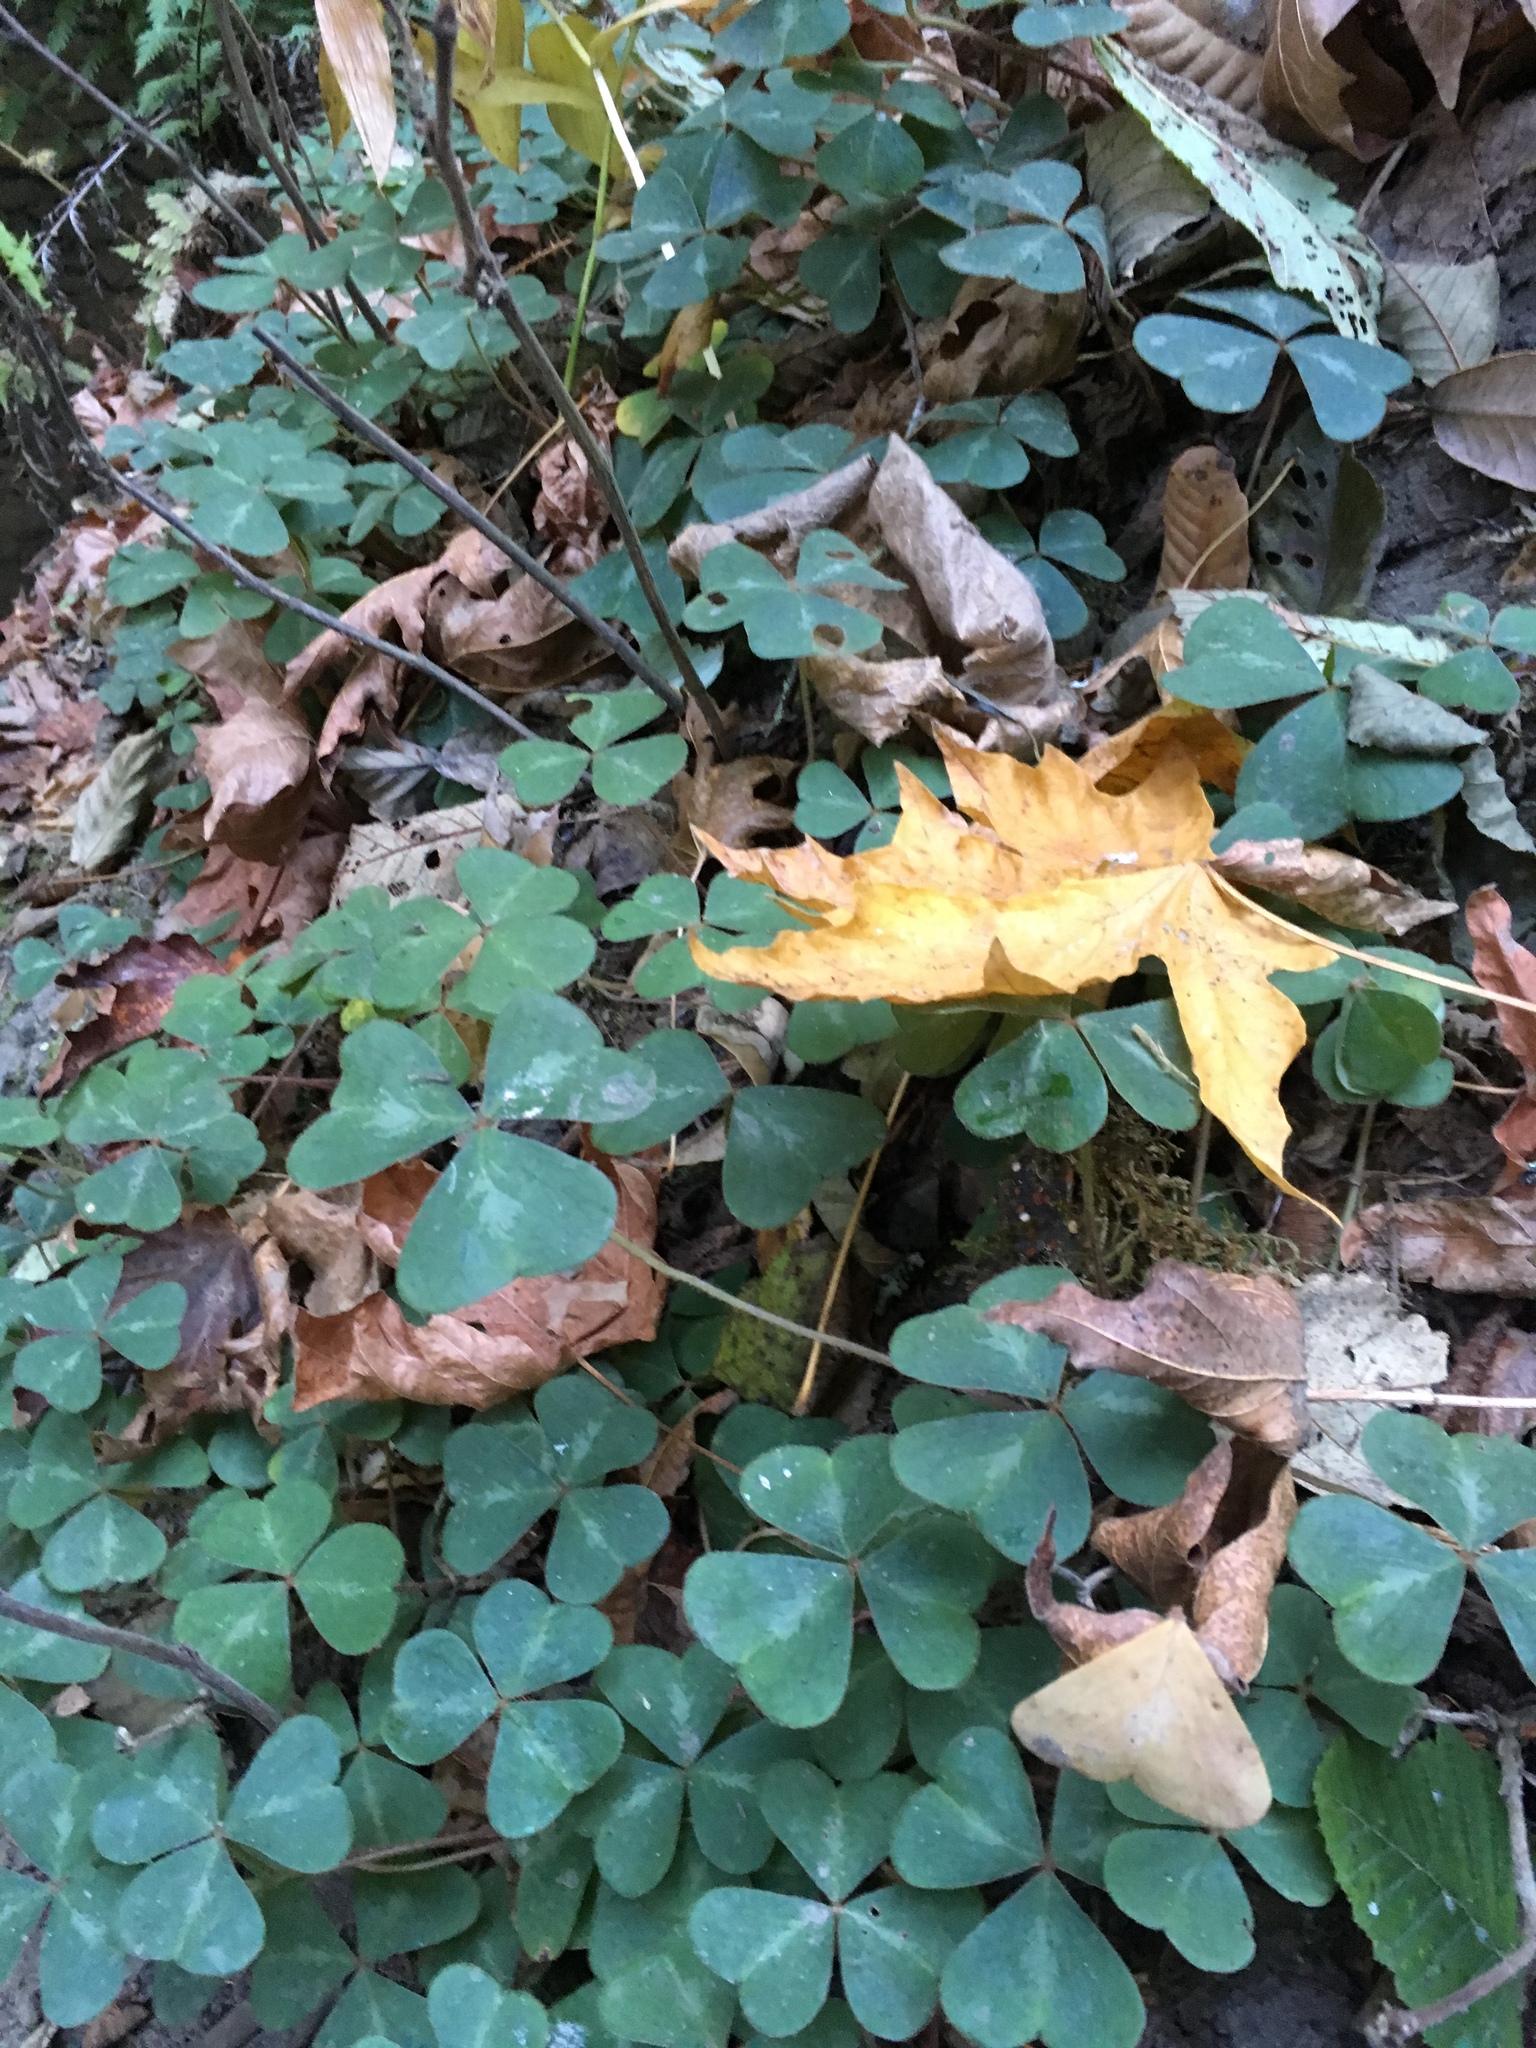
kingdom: Plantae
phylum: Tracheophyta
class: Magnoliopsida
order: Oxalidales
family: Oxalidaceae
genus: Oxalis
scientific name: Oxalis oregana
